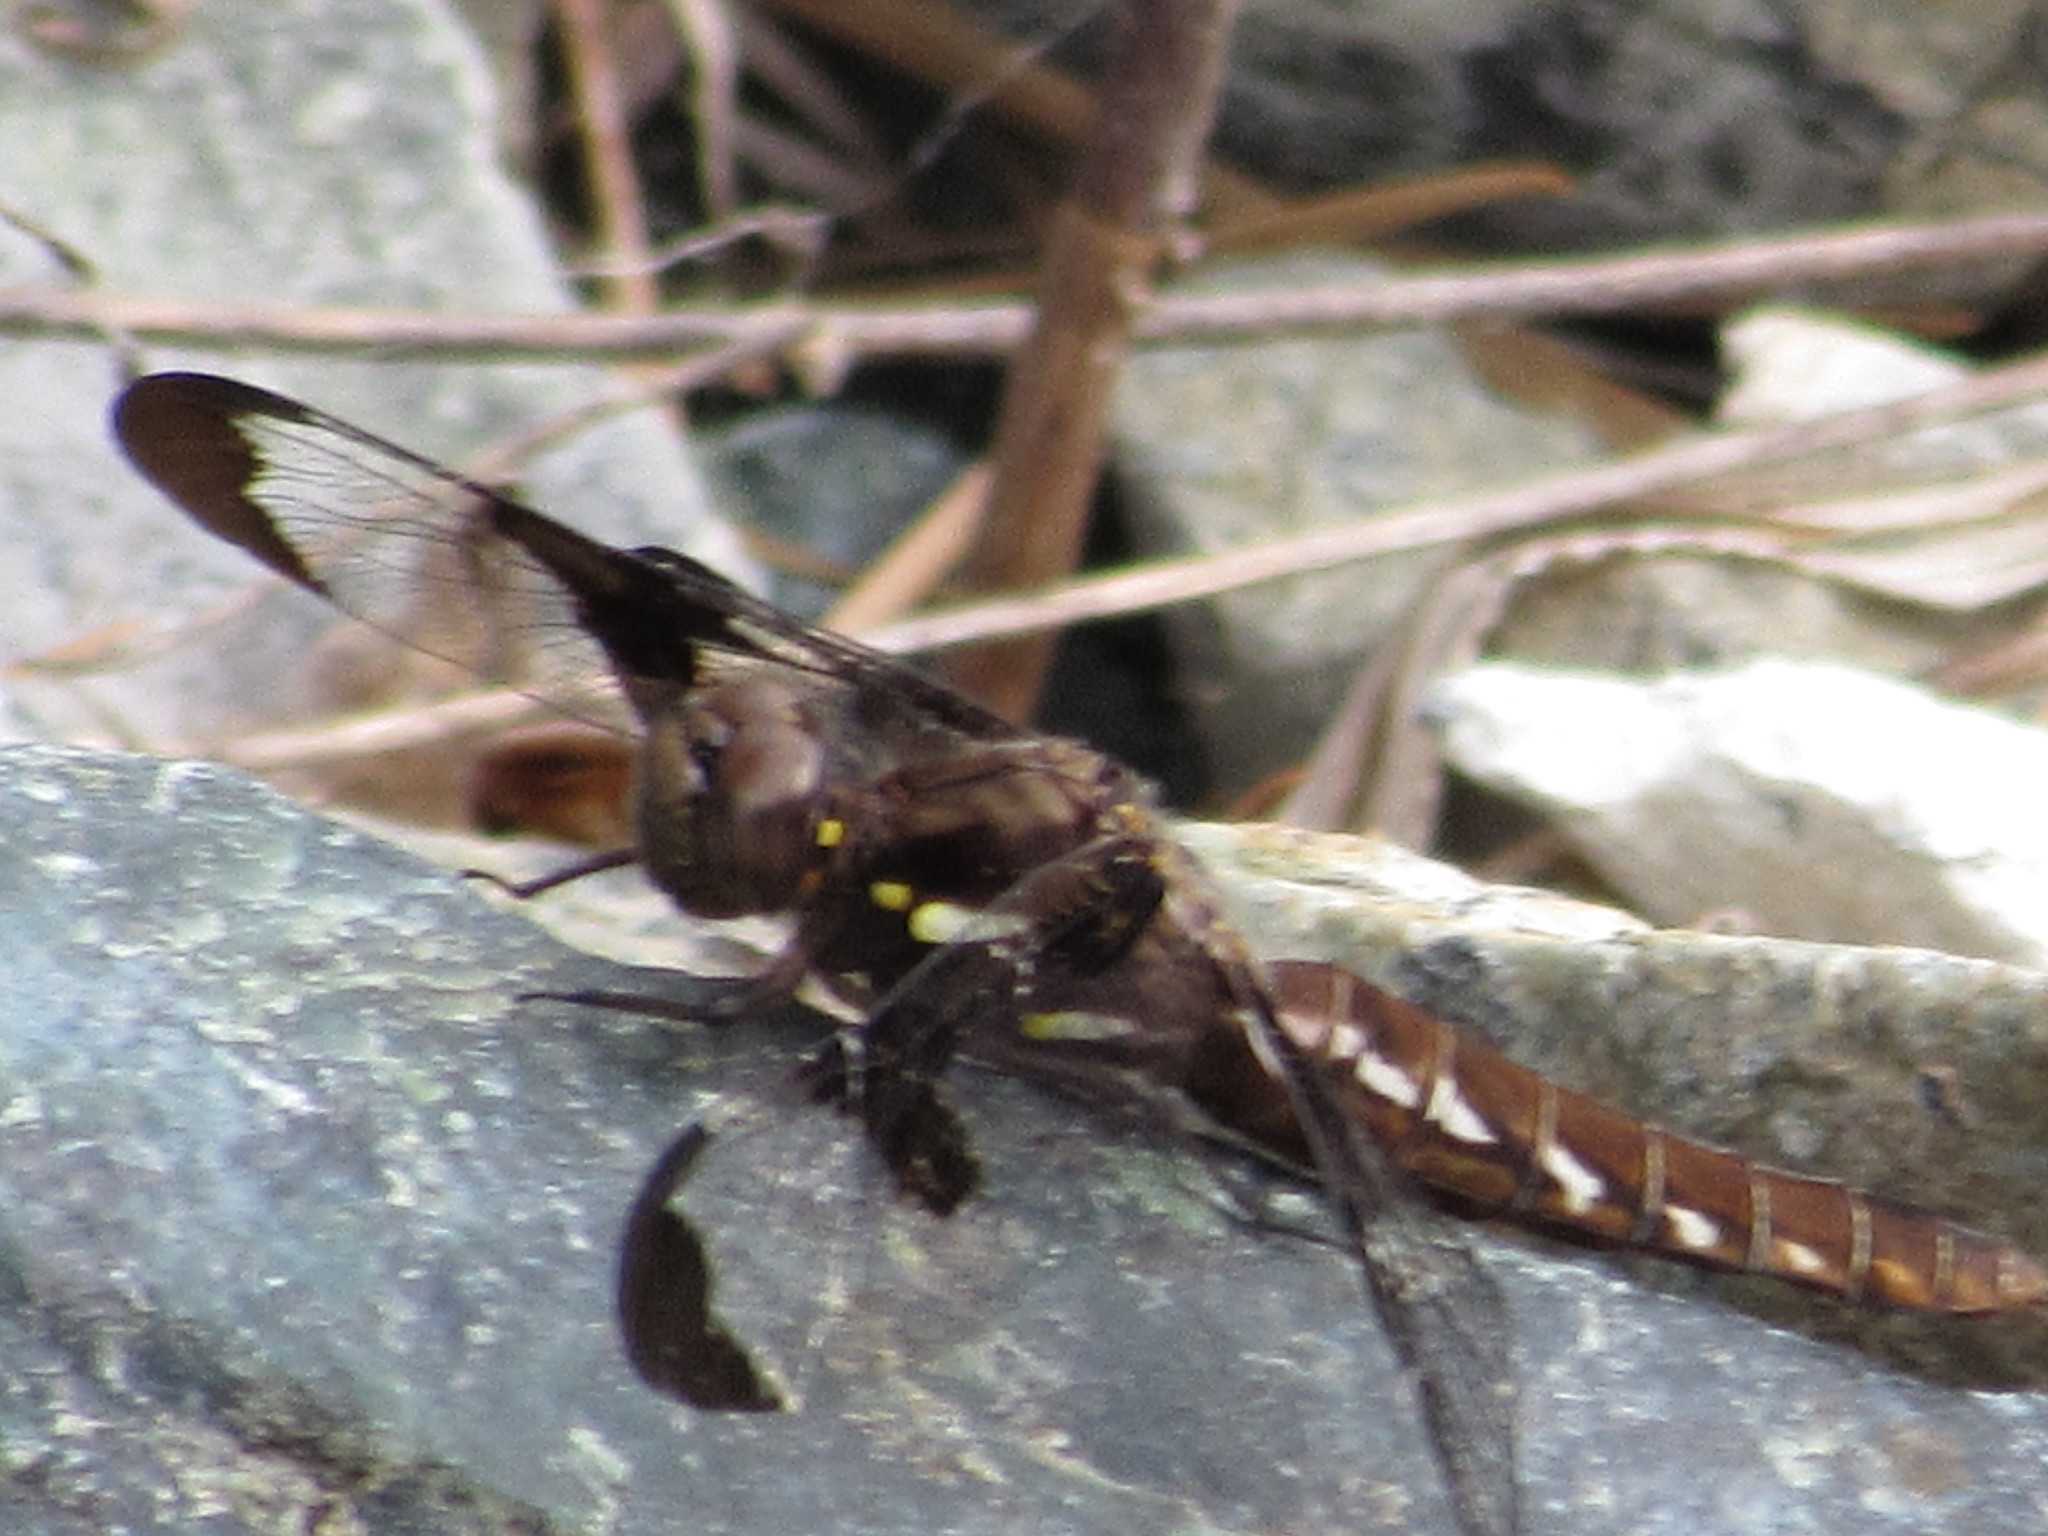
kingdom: Animalia
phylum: Arthropoda
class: Insecta
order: Odonata
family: Libellulidae
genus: Plathemis
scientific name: Plathemis lydia
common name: Common whitetail
